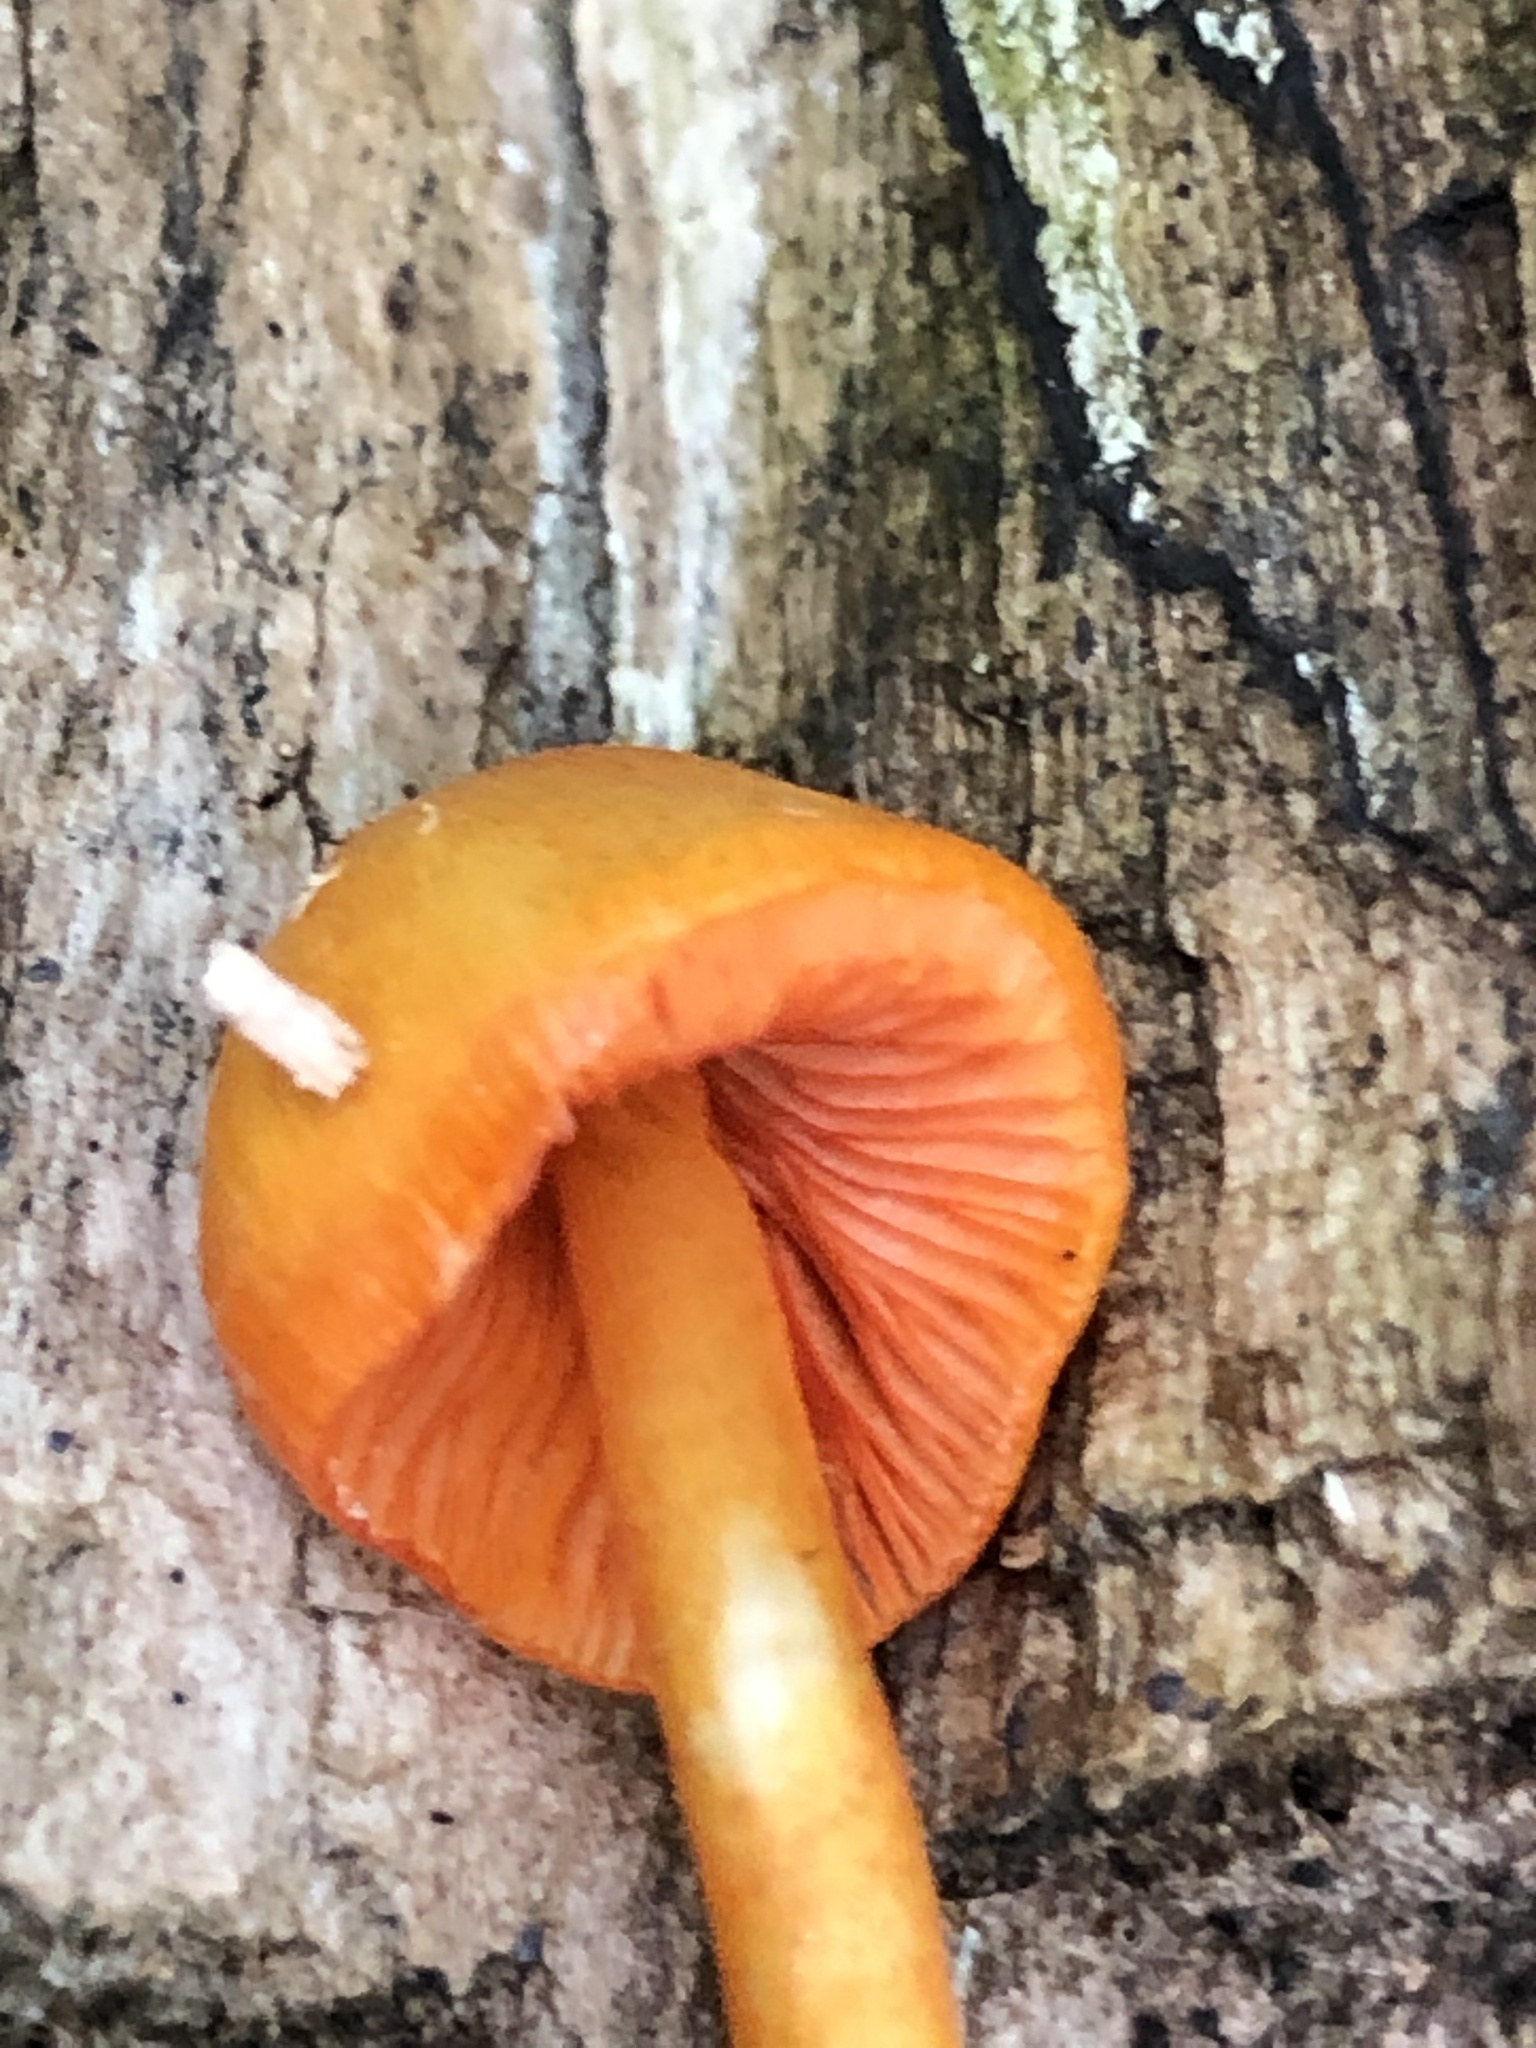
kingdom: Fungi
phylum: Basidiomycota
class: Agaricomycetes
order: Agaricales
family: Mycenaceae
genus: Mycena
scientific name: Mycena leaiana
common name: Orange mycena
